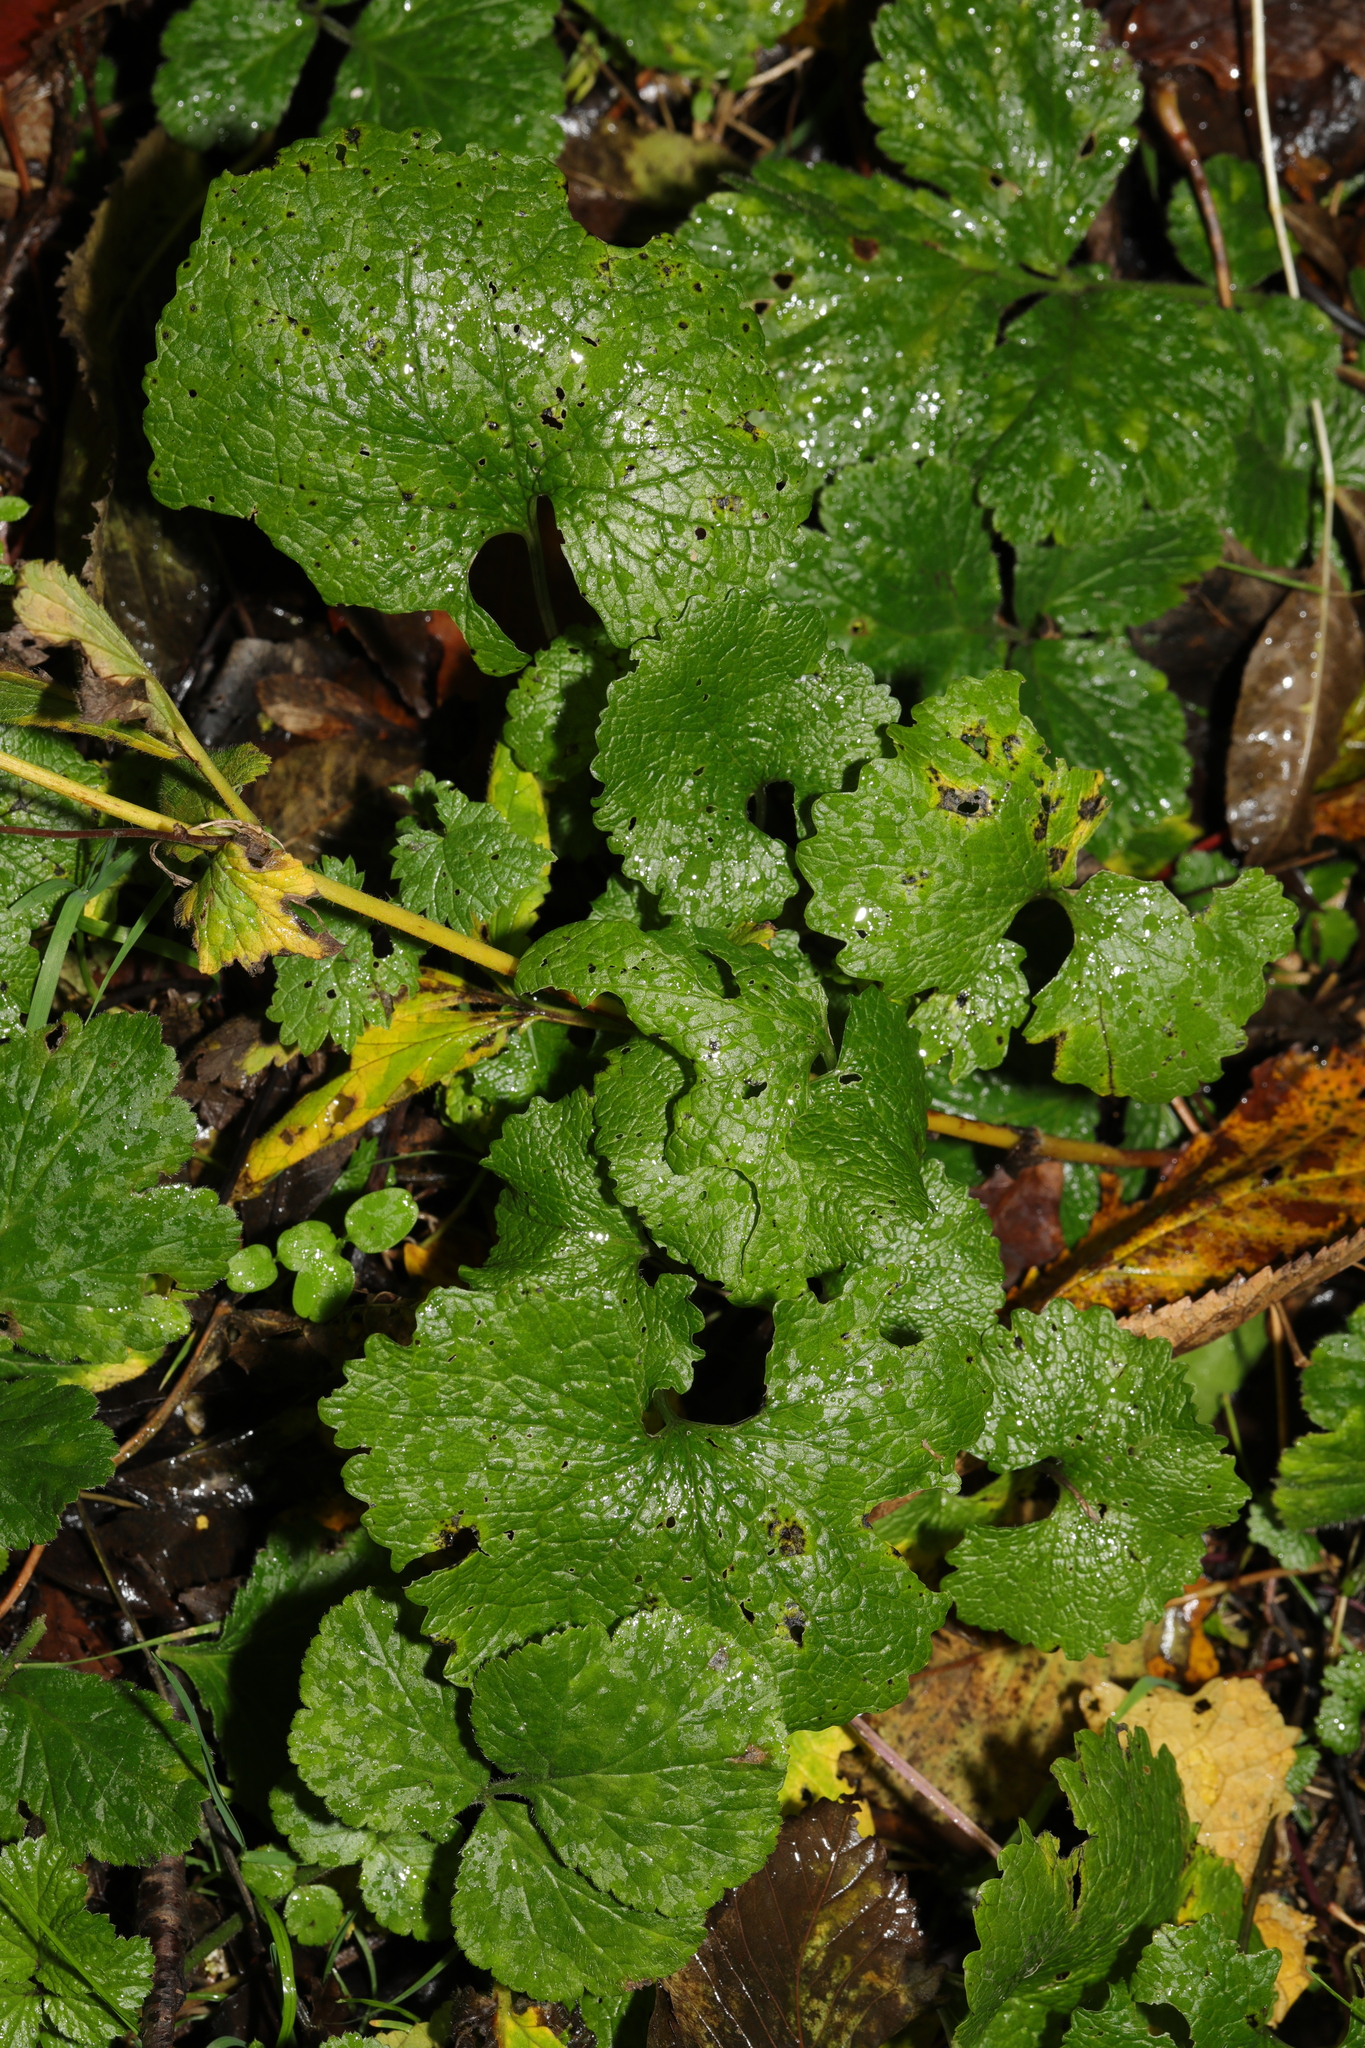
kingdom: Plantae
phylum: Tracheophyta
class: Magnoliopsida
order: Brassicales
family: Brassicaceae
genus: Alliaria
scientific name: Alliaria petiolata
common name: Garlic mustard
